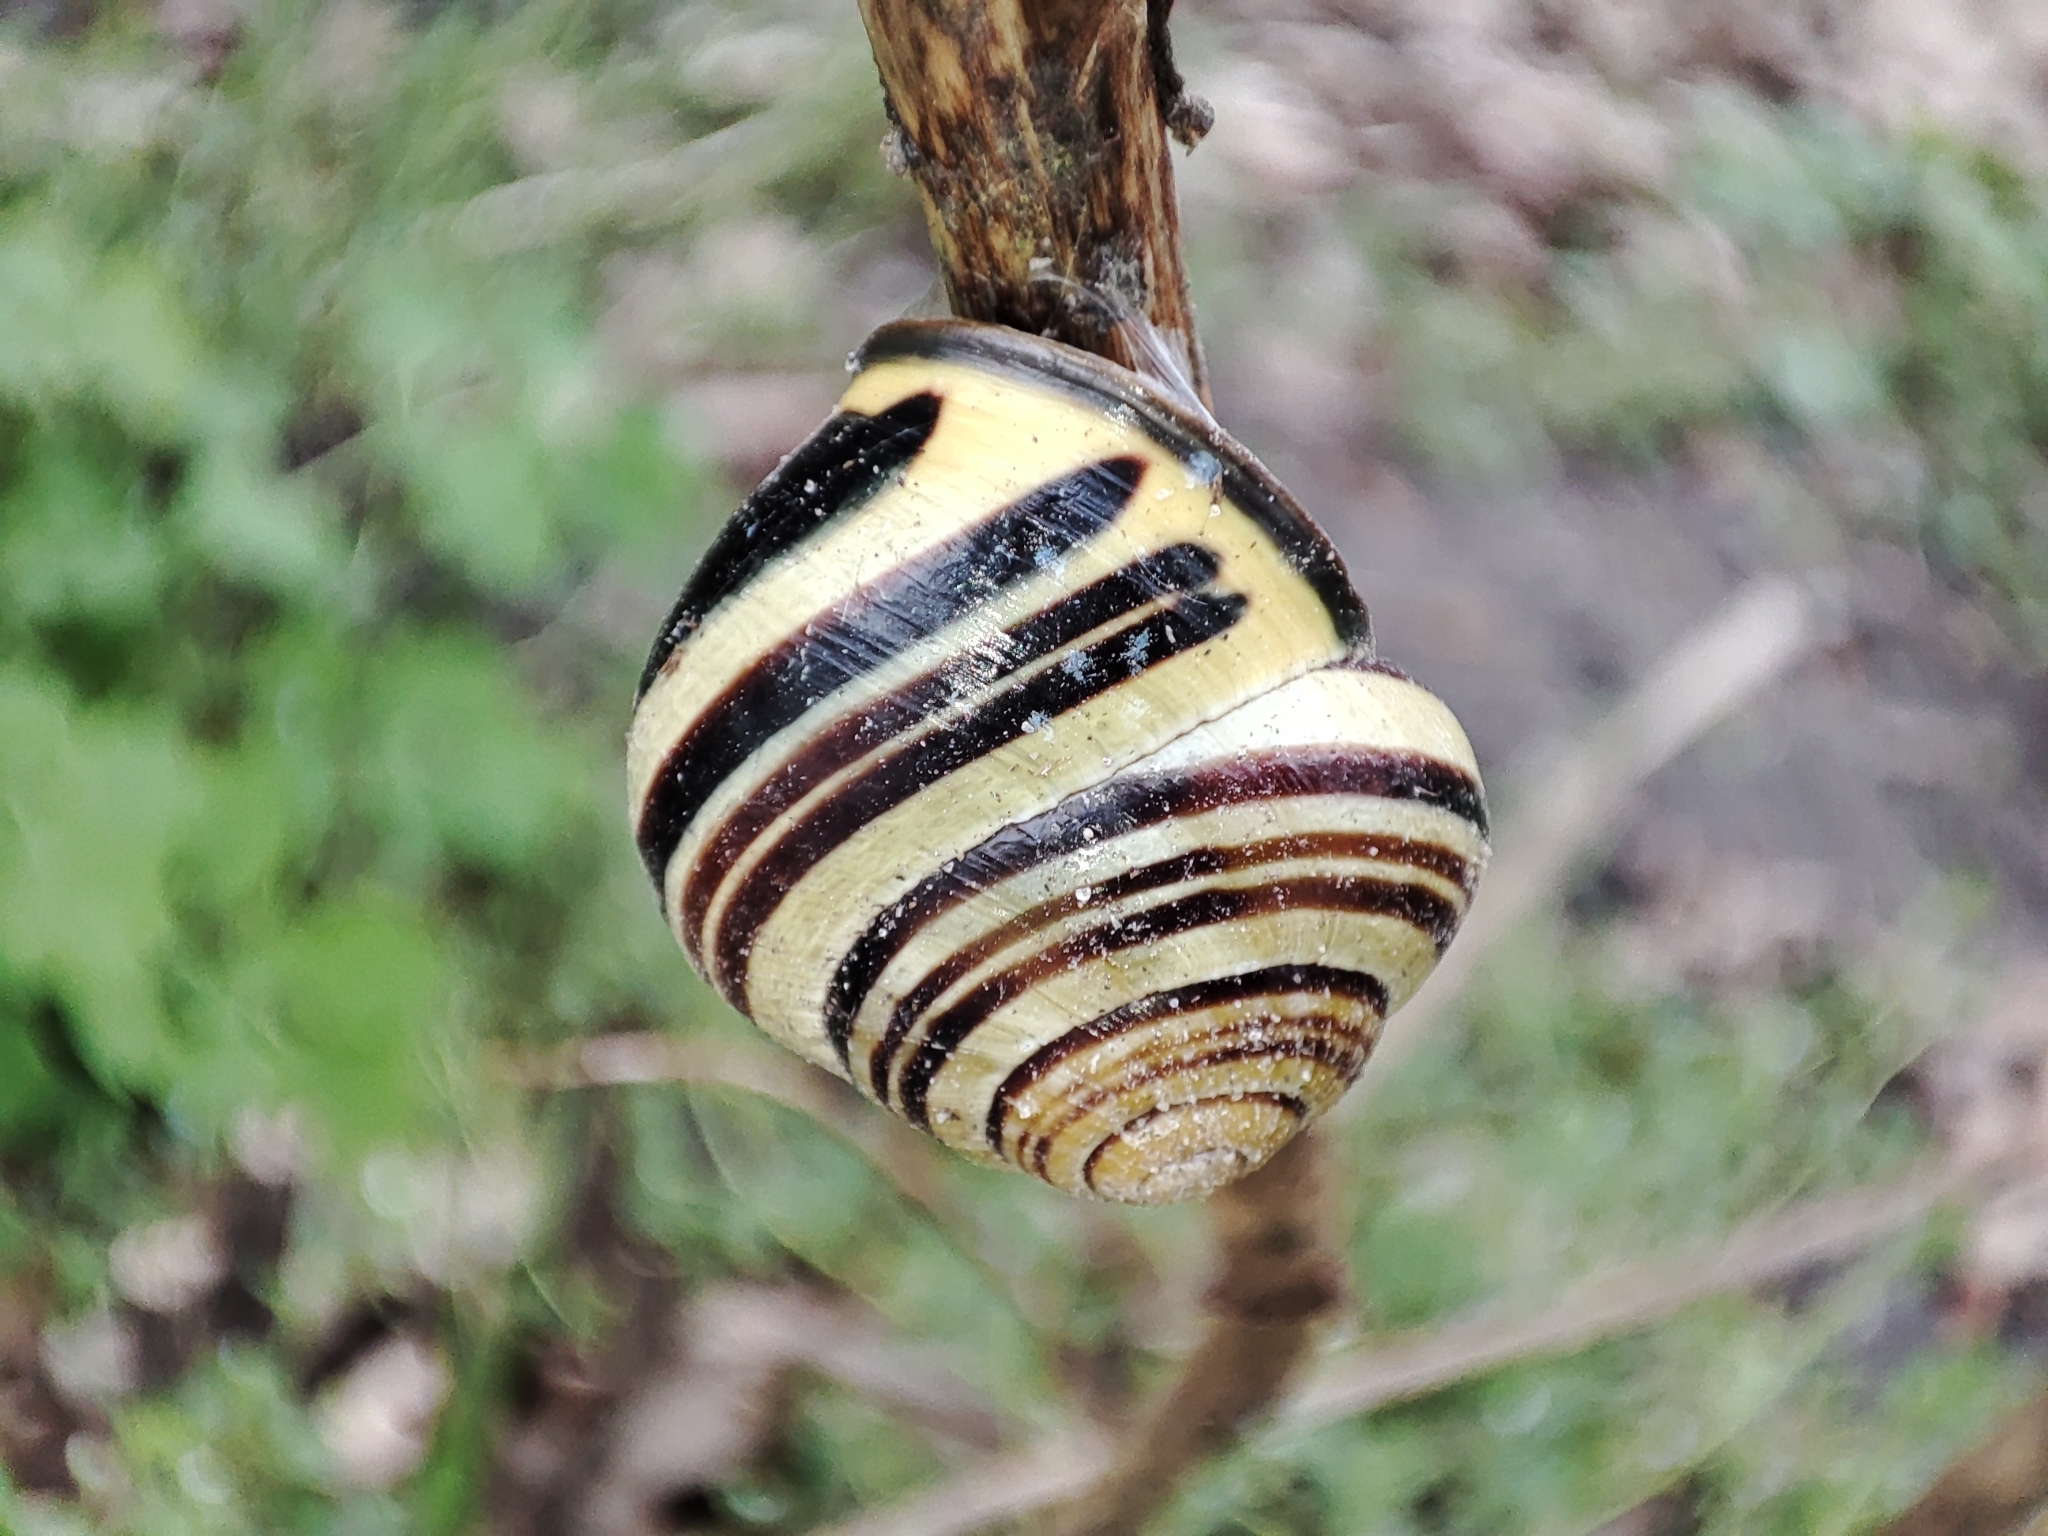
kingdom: Animalia
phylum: Mollusca
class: Gastropoda
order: Stylommatophora
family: Helicidae
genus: Cepaea
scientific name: Cepaea nemoralis
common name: Grovesnail
